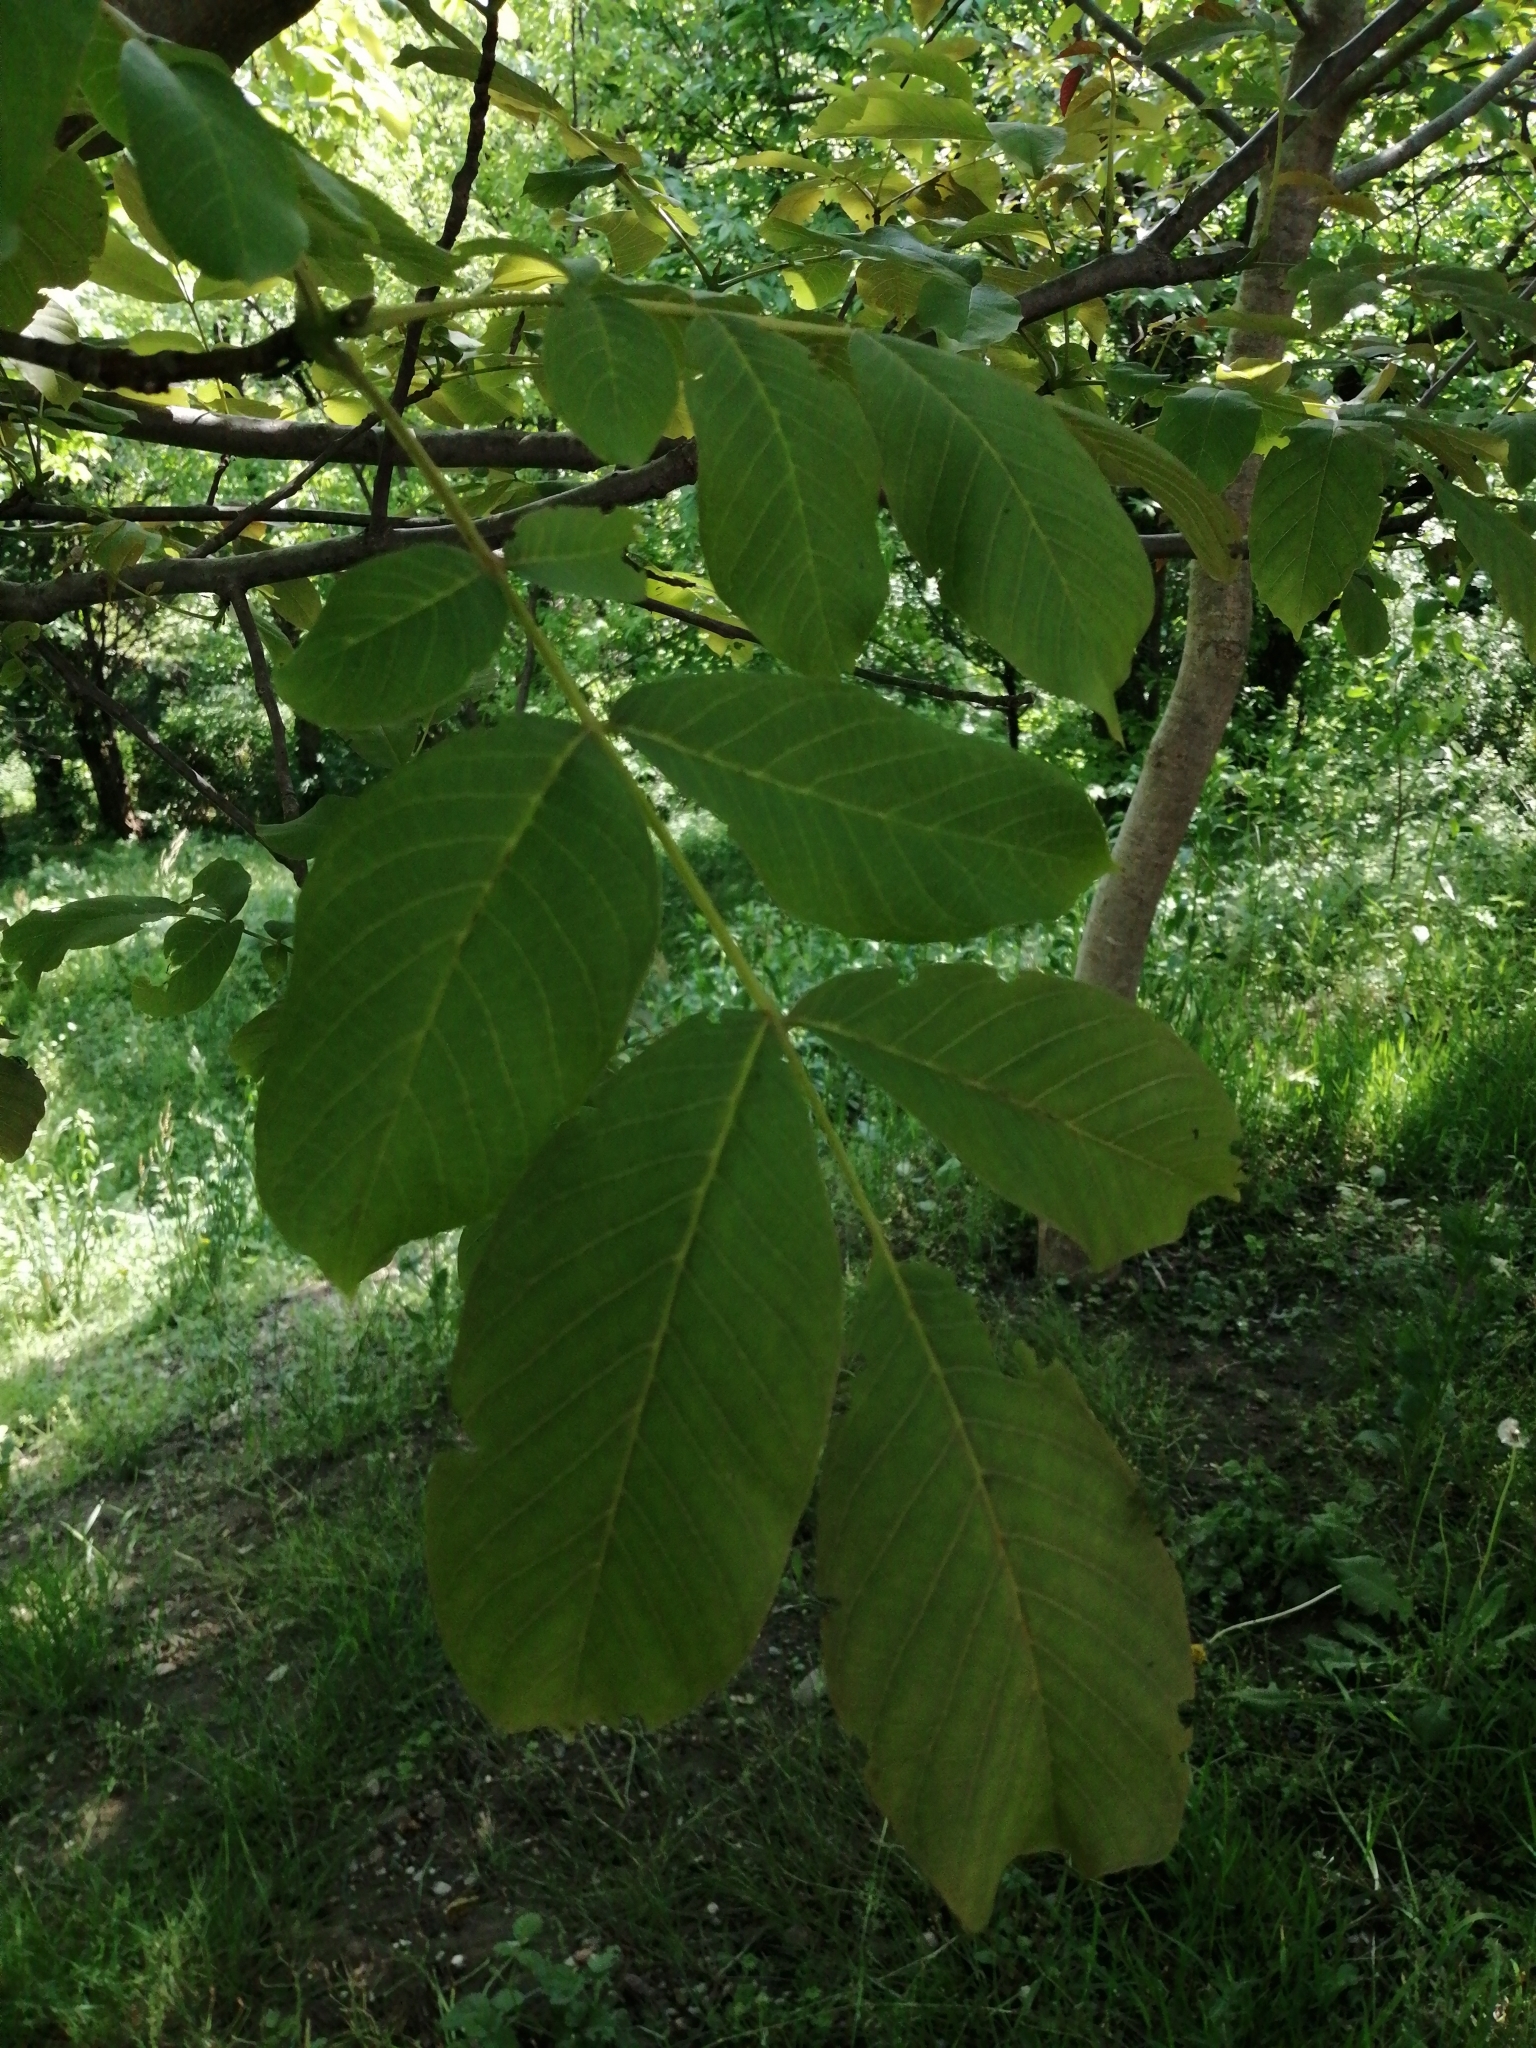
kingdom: Plantae
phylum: Tracheophyta
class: Magnoliopsida
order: Fagales
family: Juglandaceae
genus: Juglans
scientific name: Juglans regia
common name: Walnut
